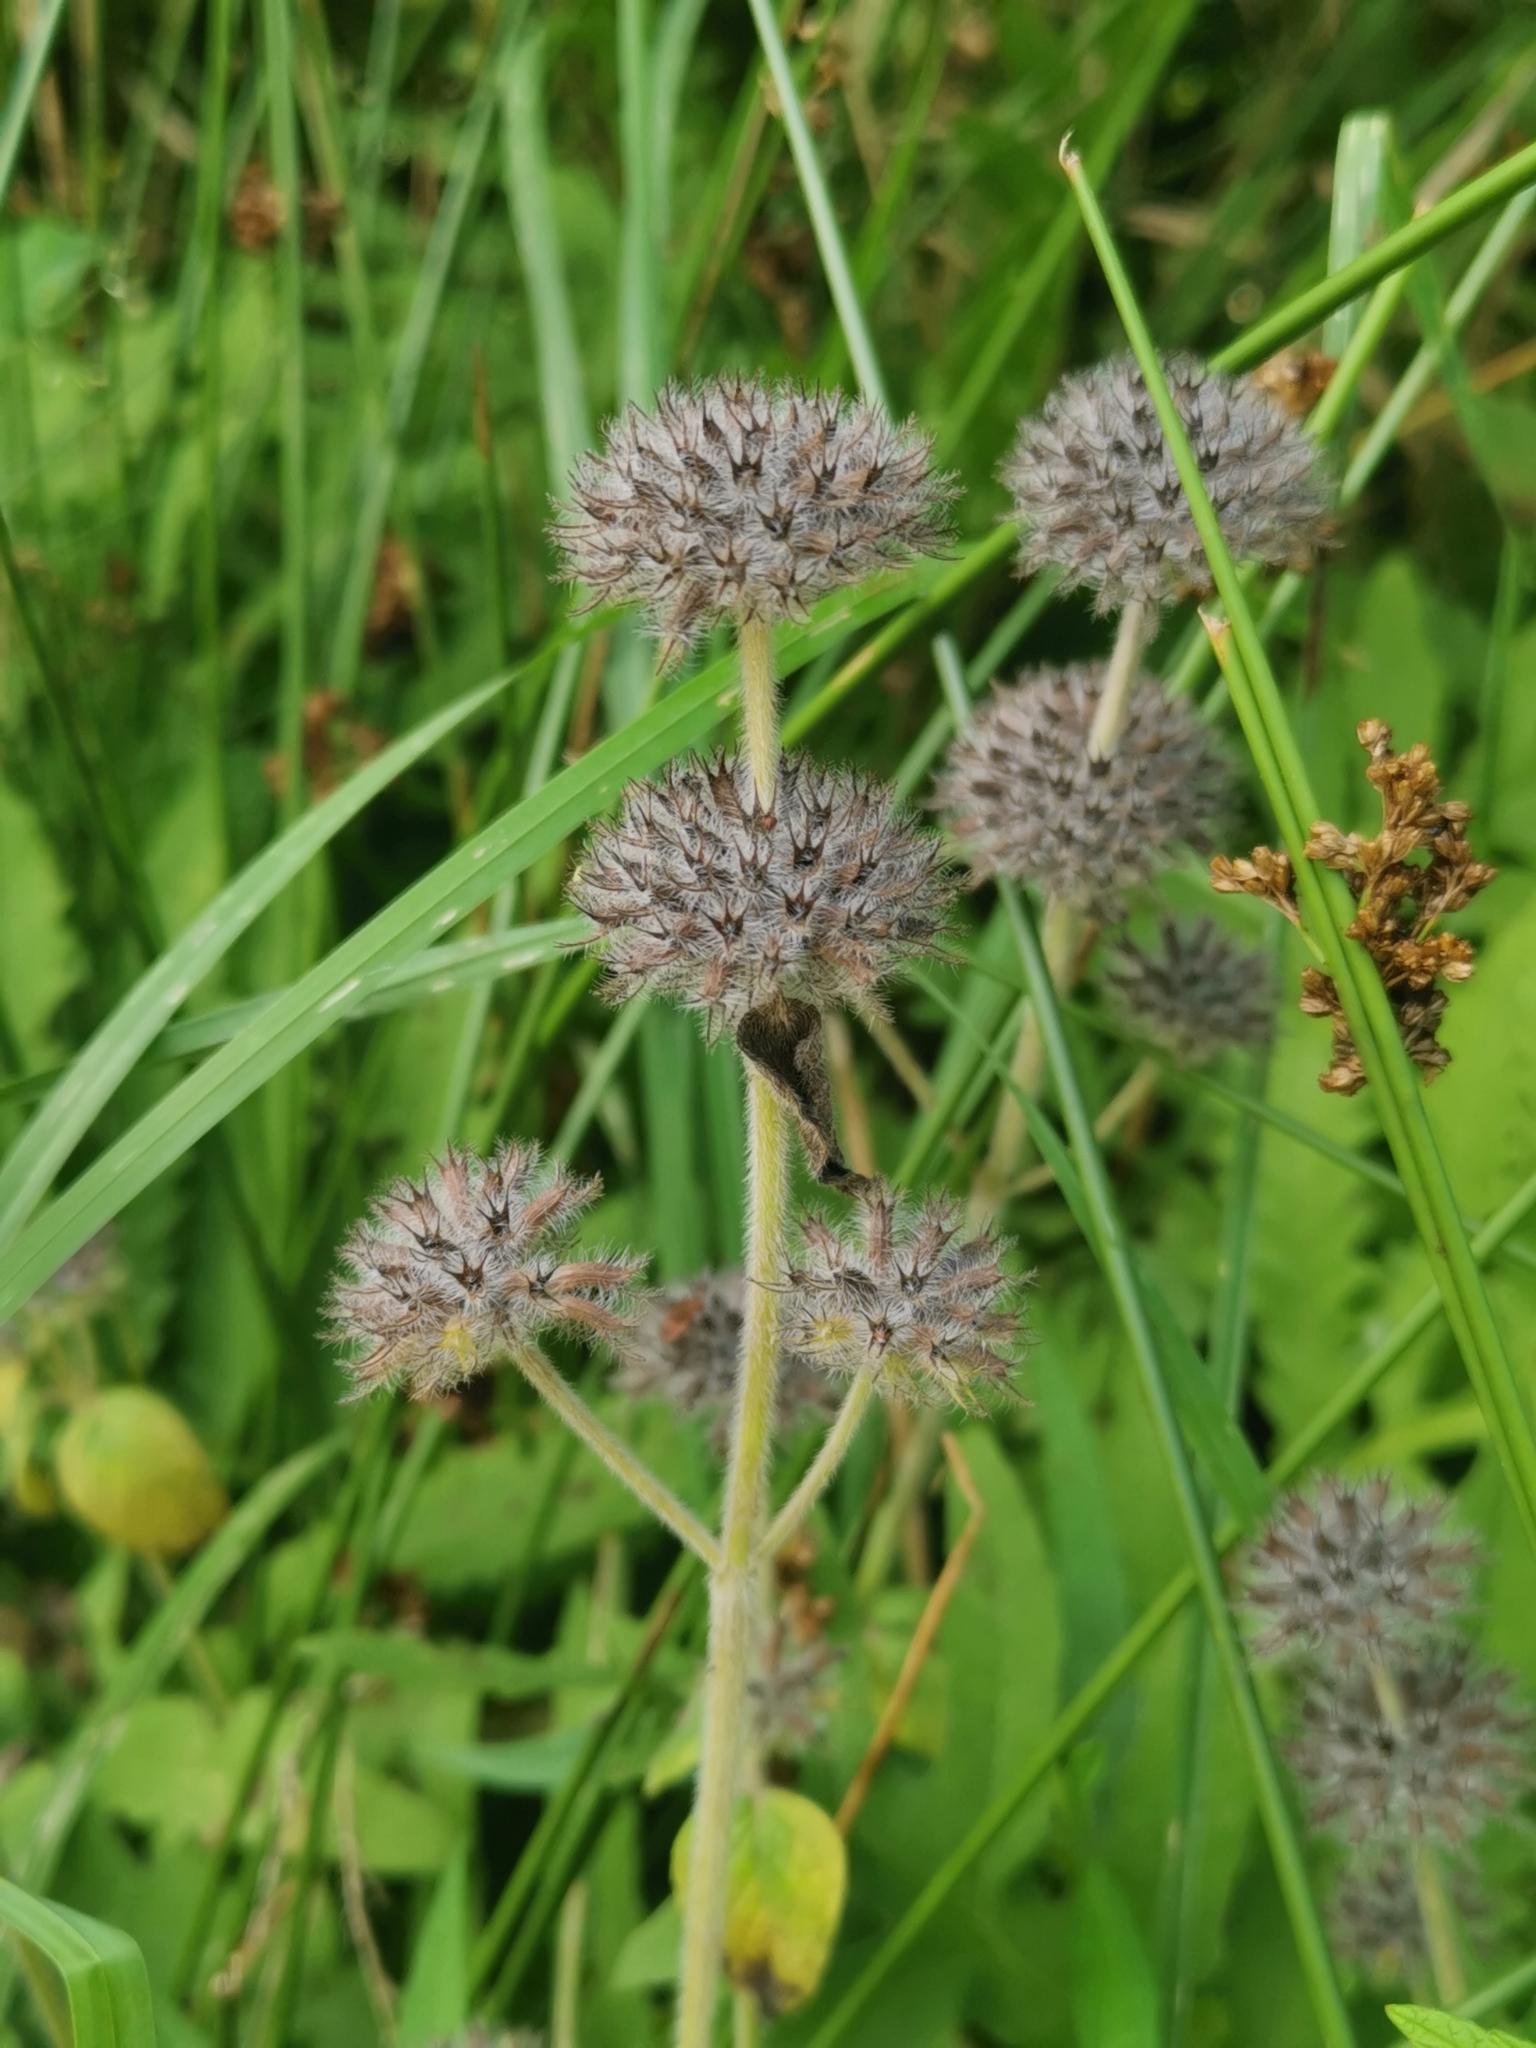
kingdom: Plantae
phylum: Tracheophyta
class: Magnoliopsida
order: Lamiales
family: Lamiaceae
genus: Clinopodium
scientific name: Clinopodium vulgare
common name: Wild basil
